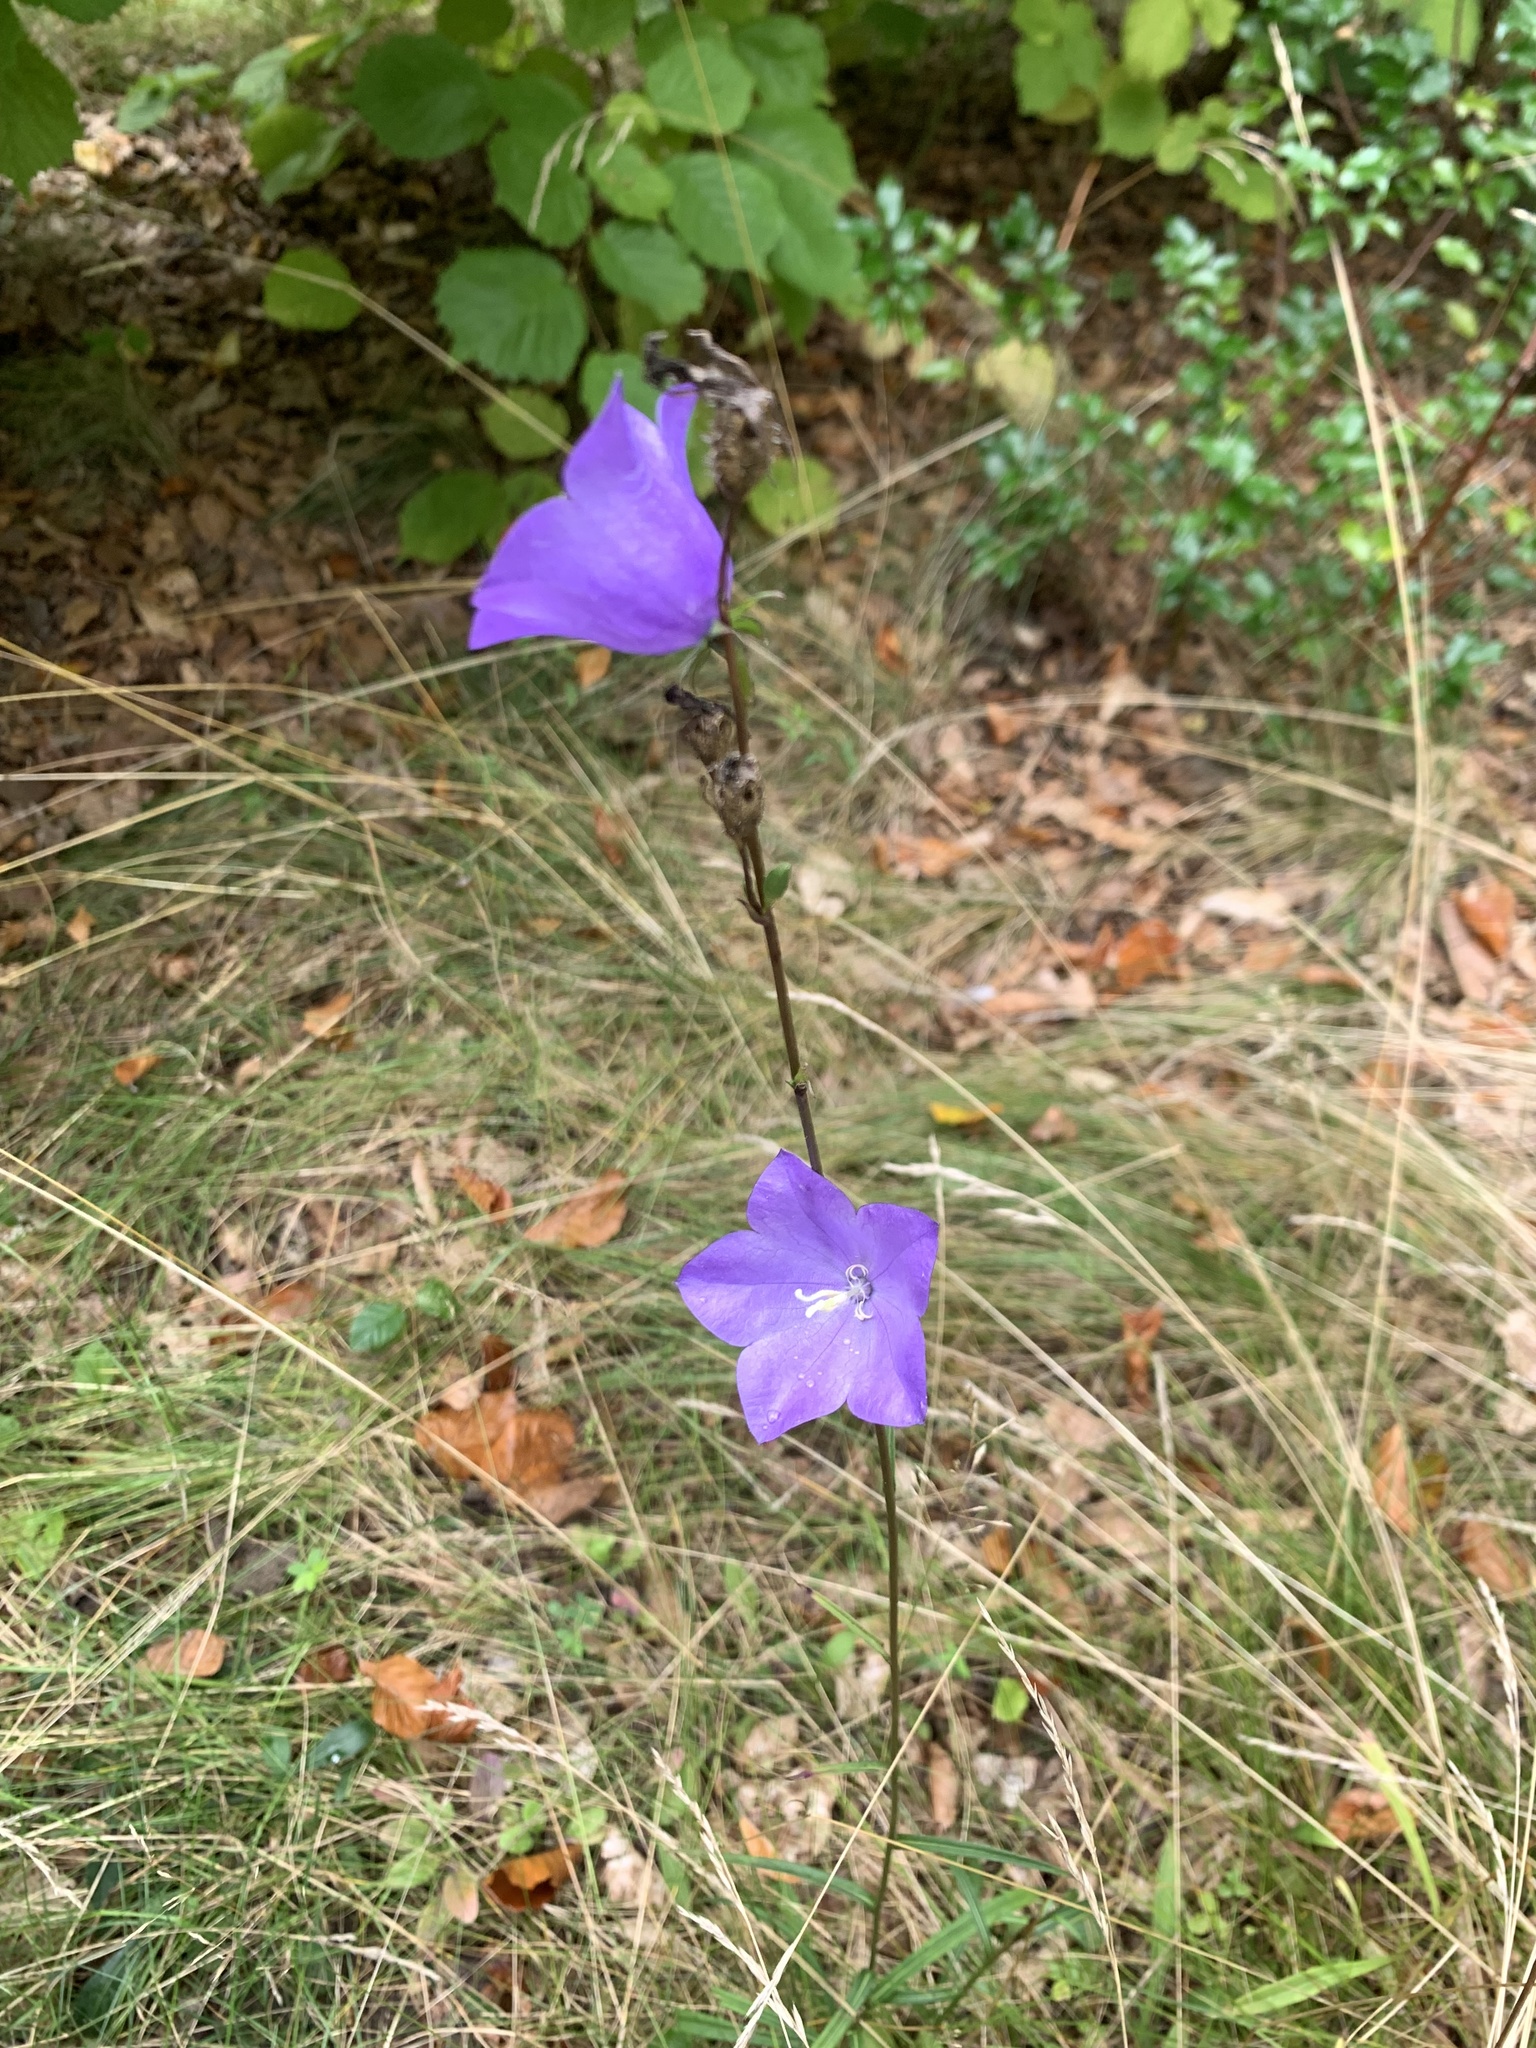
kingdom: Plantae
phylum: Tracheophyta
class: Magnoliopsida
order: Asterales
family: Campanulaceae
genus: Campanula
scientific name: Campanula persicifolia
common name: Peach-leaved bellflower
